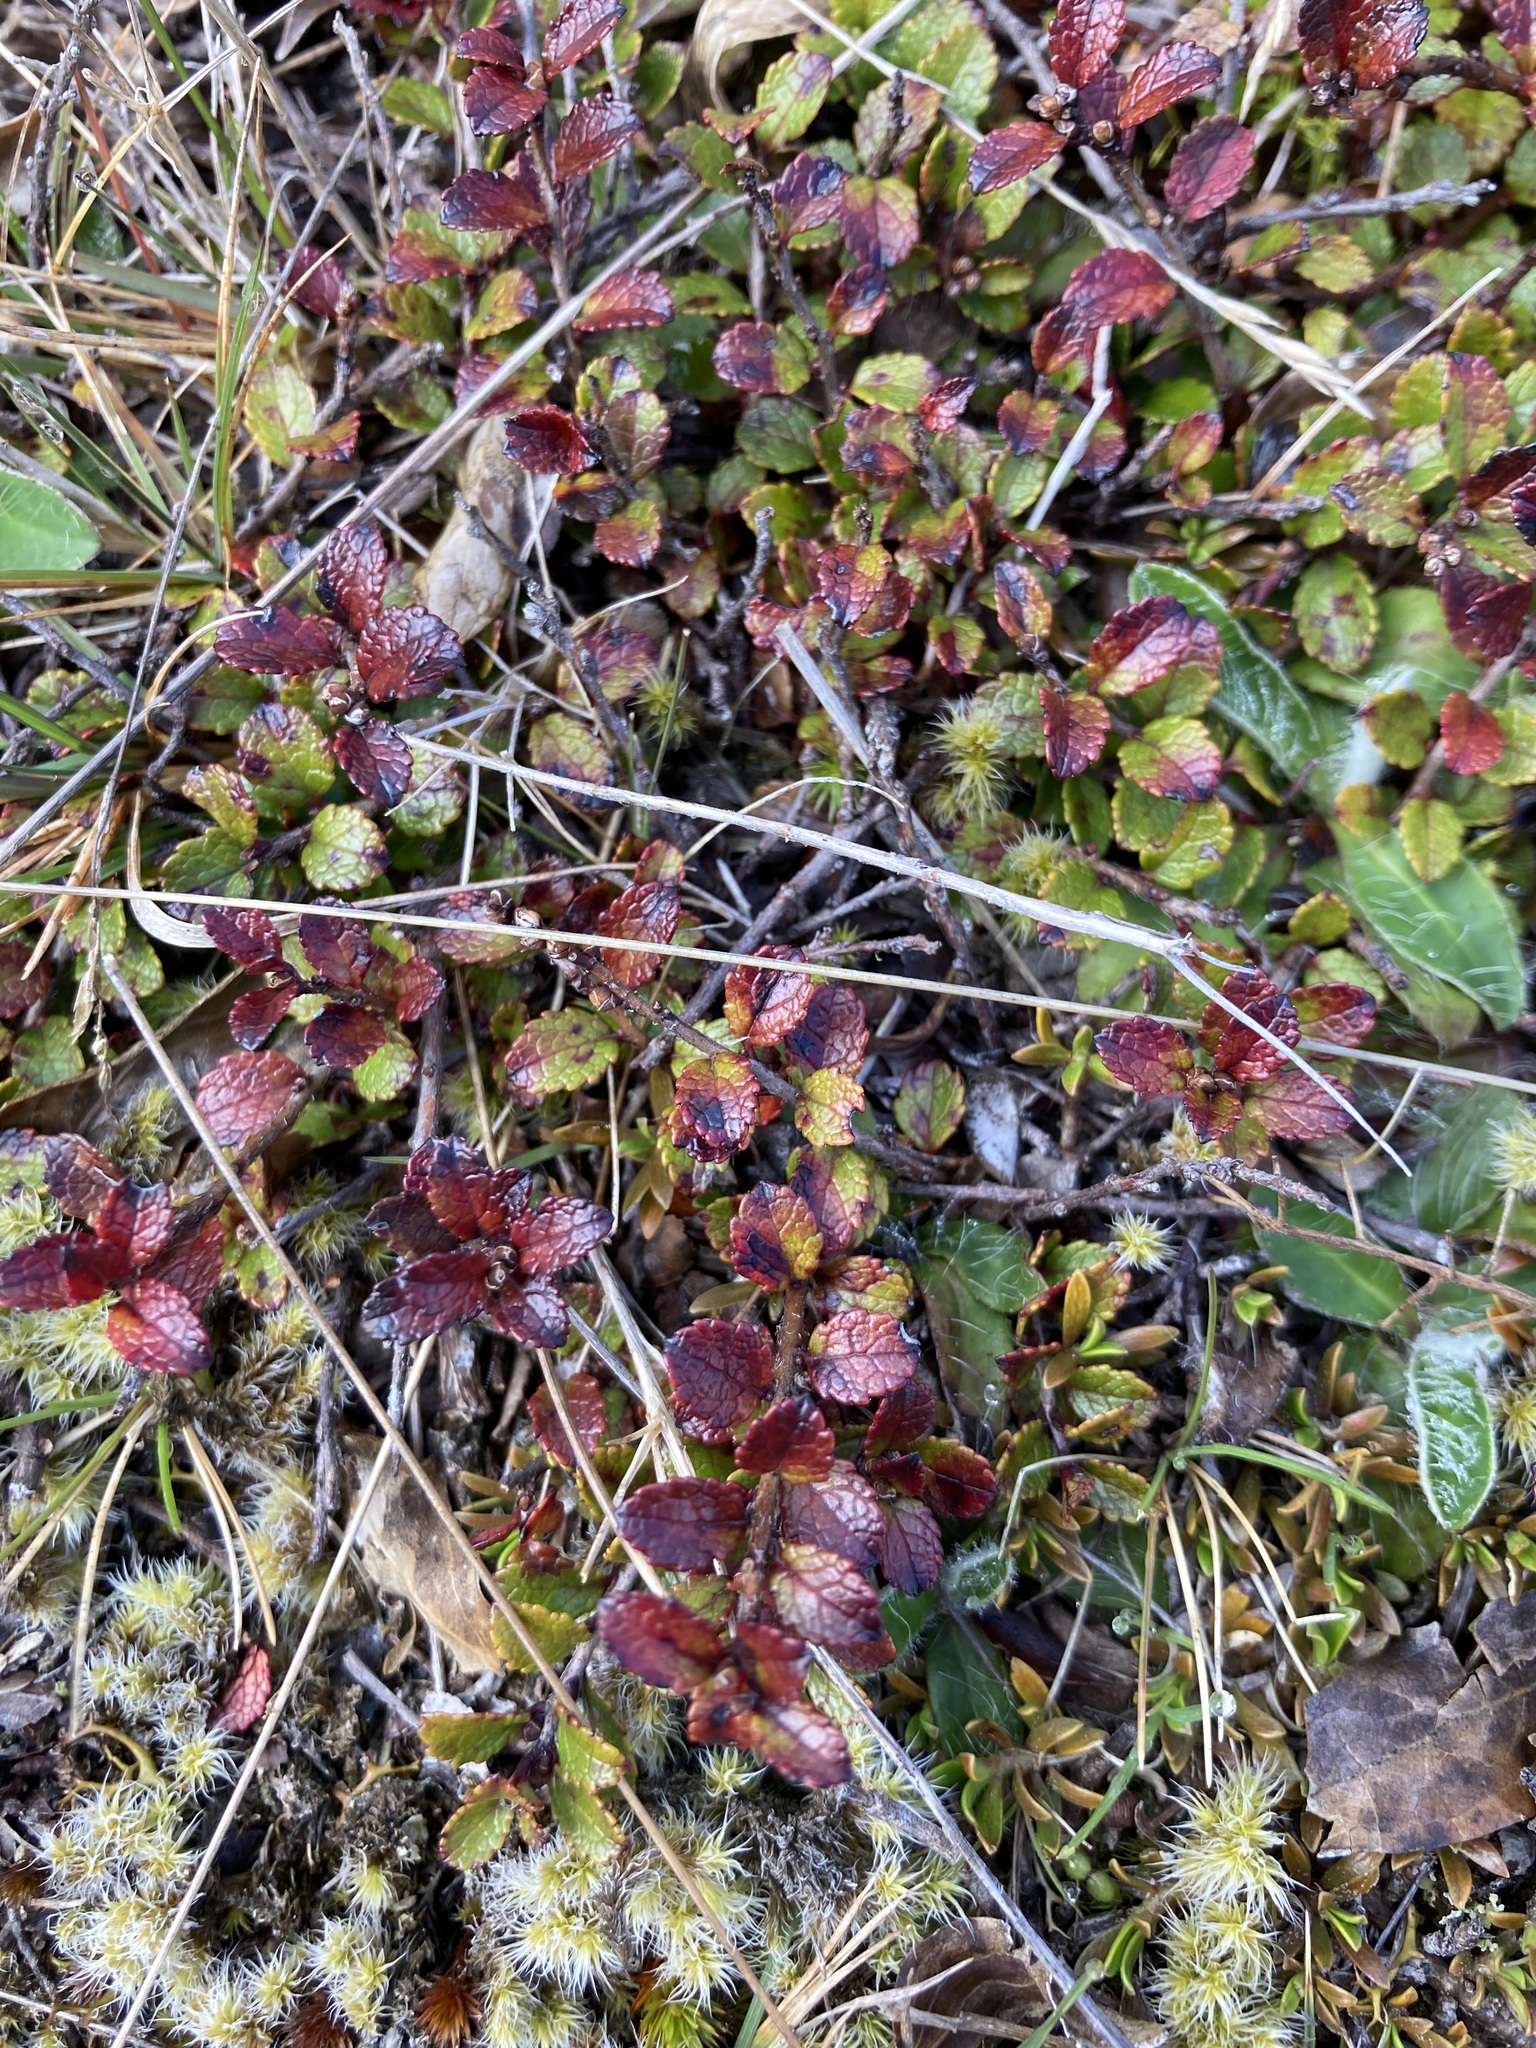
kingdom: Plantae
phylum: Tracheophyta
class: Magnoliopsida
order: Ericales
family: Ericaceae
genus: Gaultheria
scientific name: Gaultheria depressa
